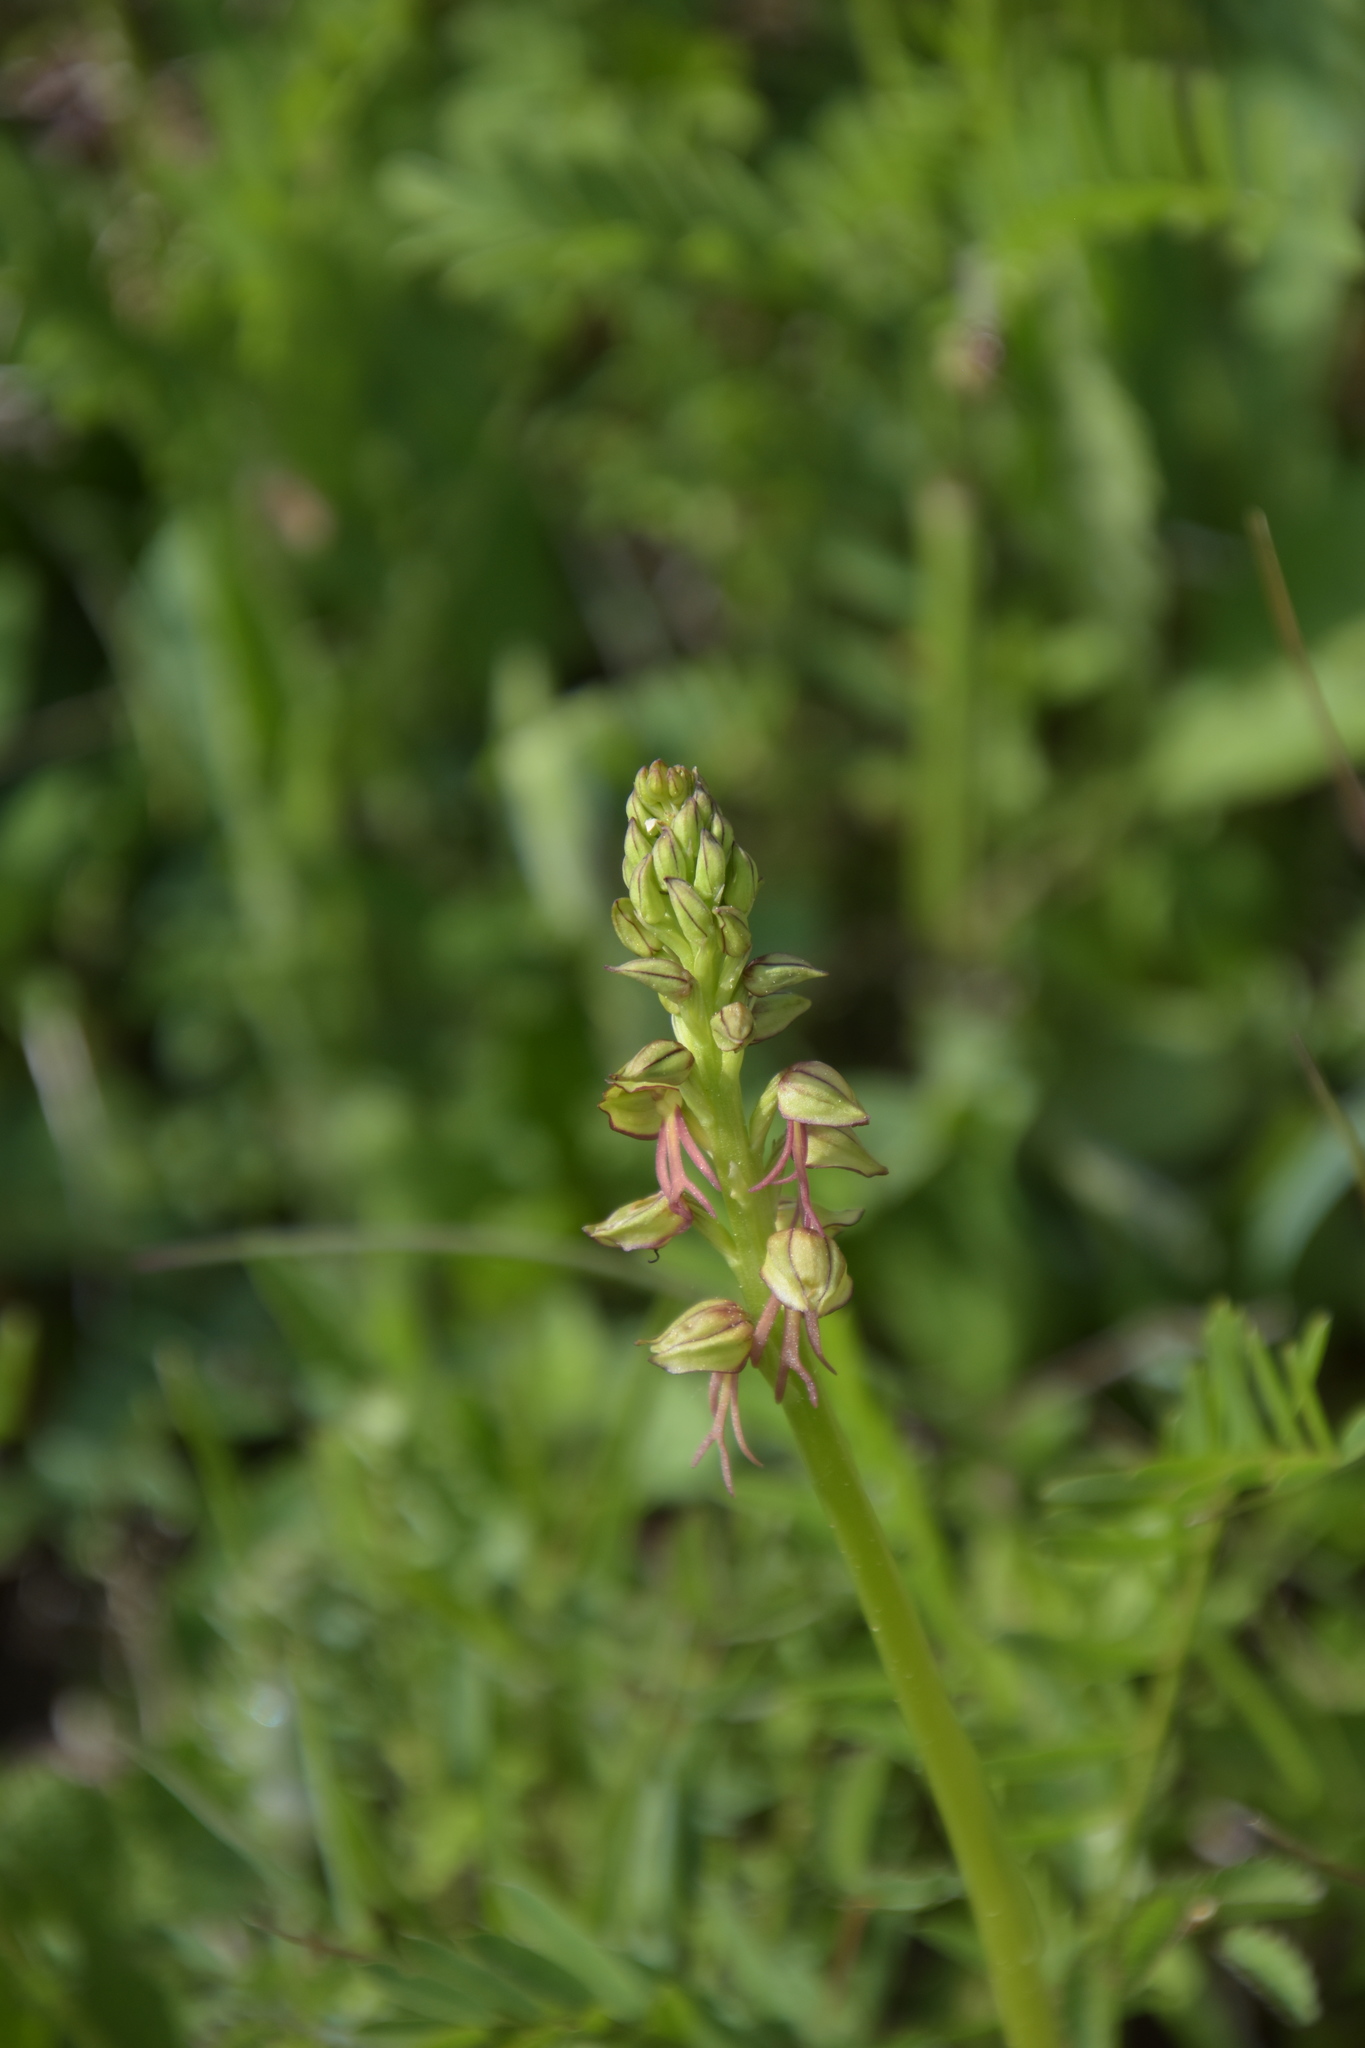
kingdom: Plantae
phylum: Tracheophyta
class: Liliopsida
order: Asparagales
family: Orchidaceae
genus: Orchis
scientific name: Orchis anthropophora
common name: Man orchid
